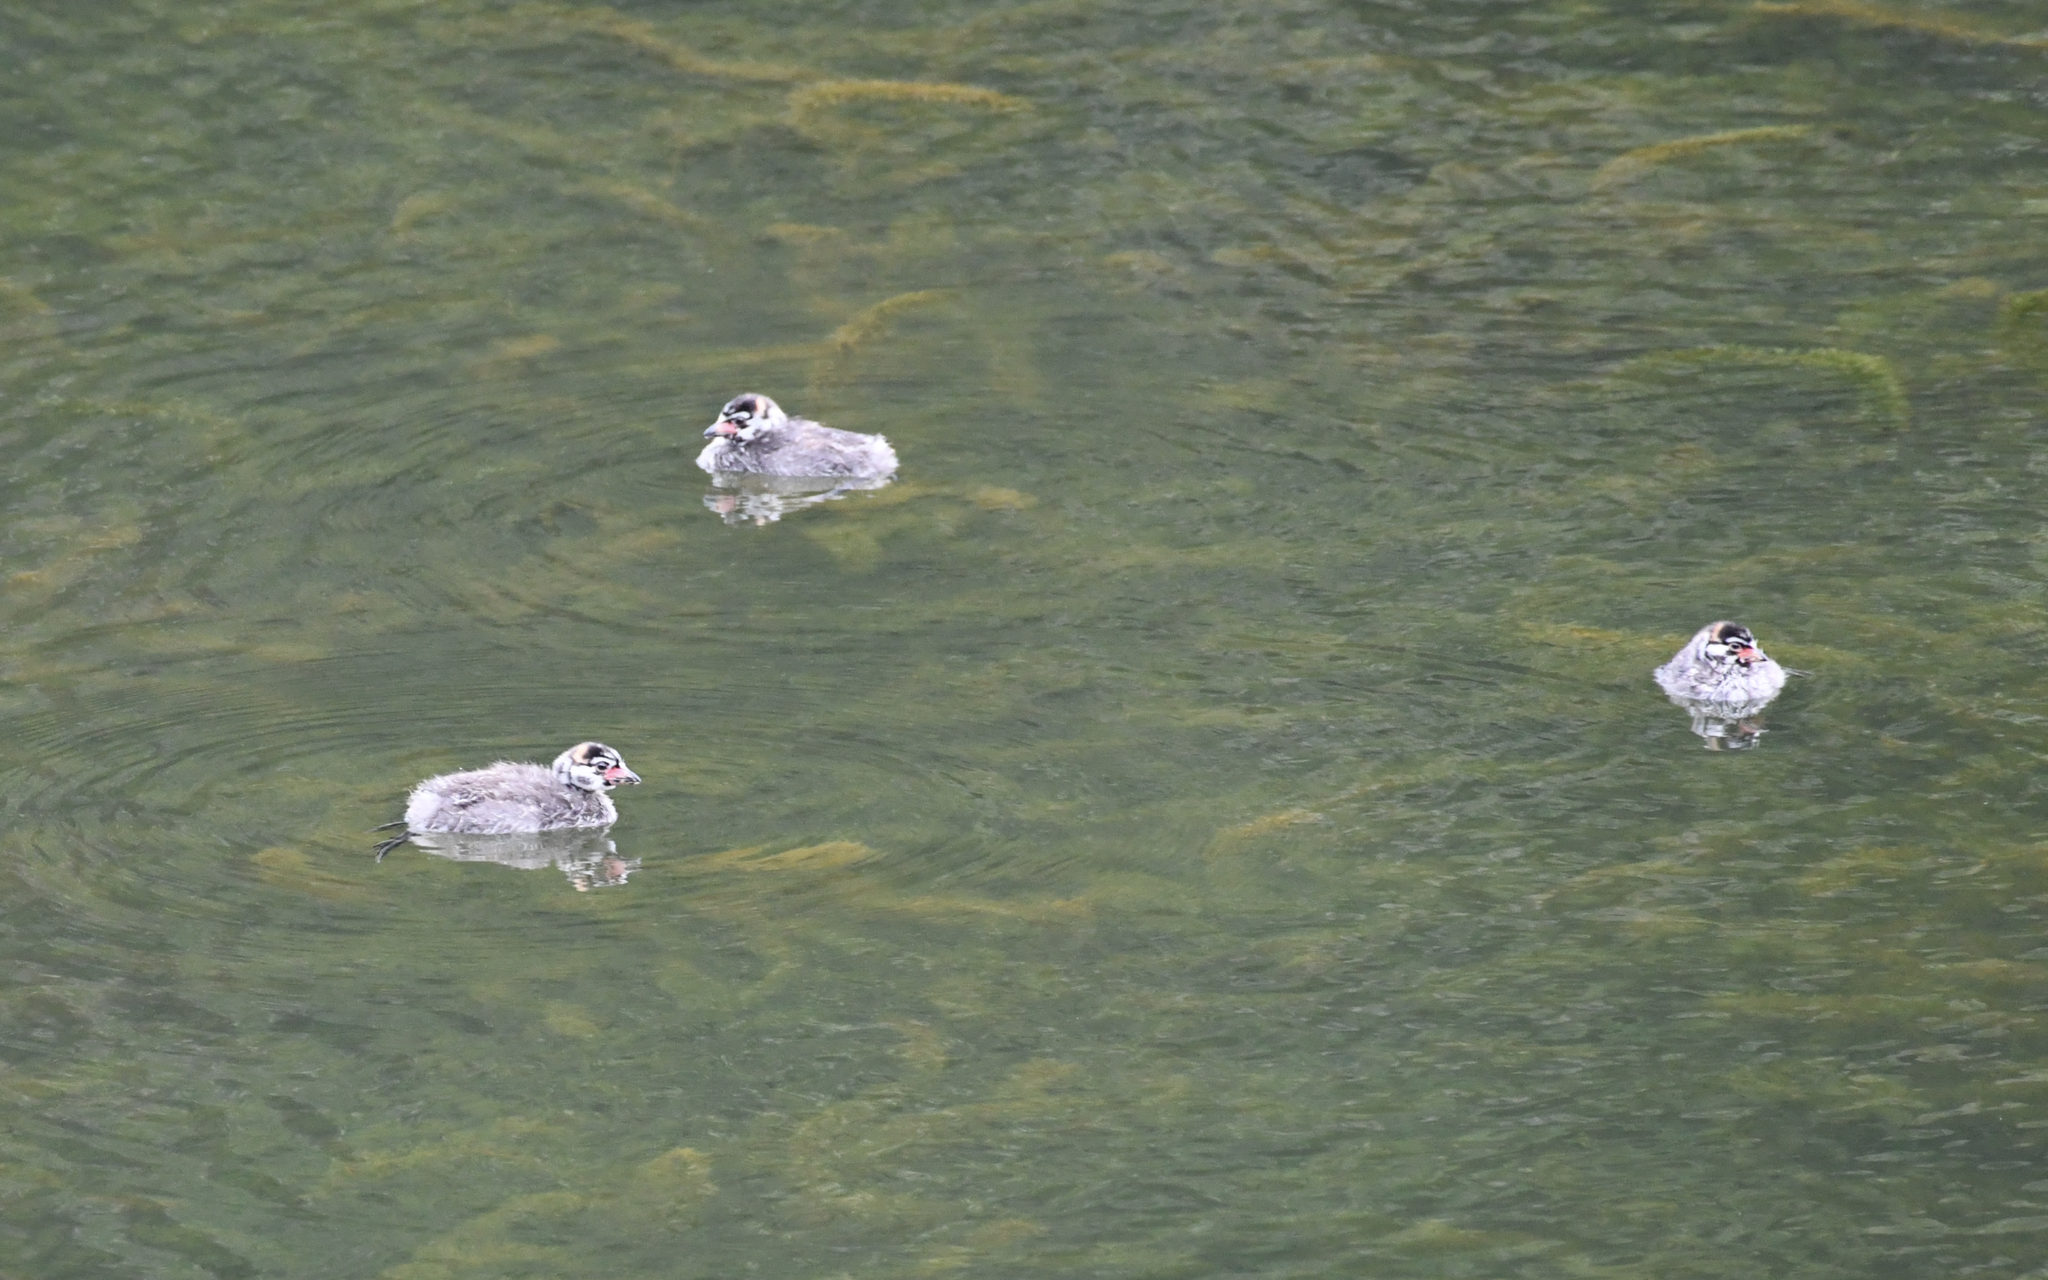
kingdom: Animalia
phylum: Chordata
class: Aves
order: Podicipediformes
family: Podicipedidae
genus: Podilymbus
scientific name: Podilymbus podiceps
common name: Pied-billed grebe
